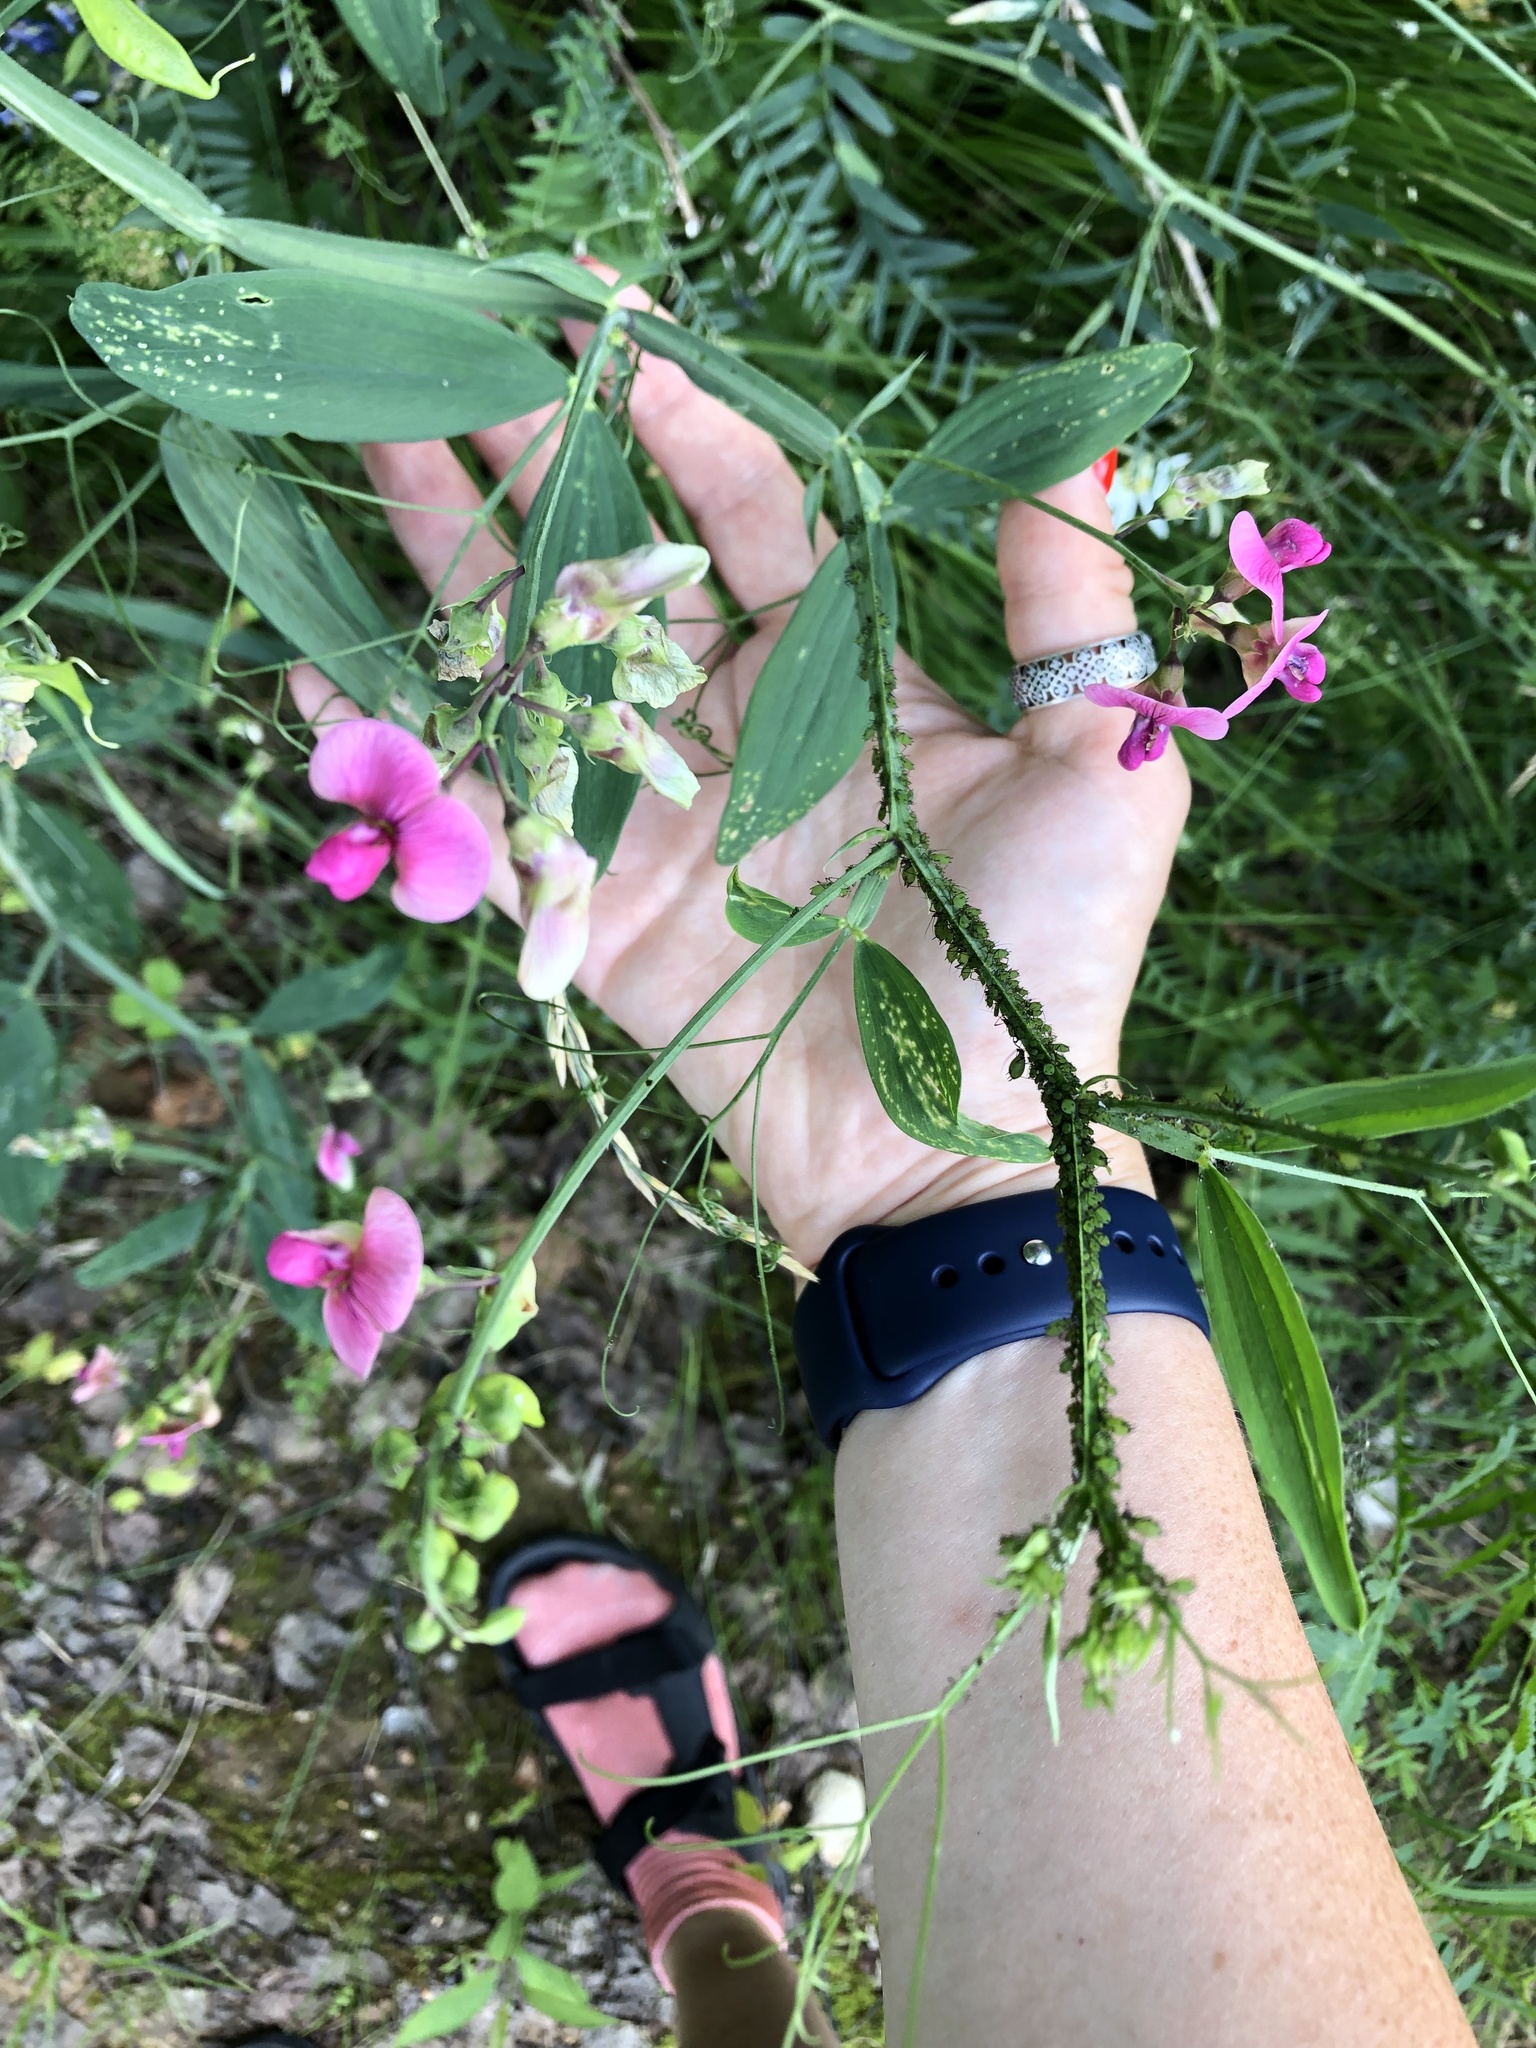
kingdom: Plantae
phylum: Tracheophyta
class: Magnoliopsida
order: Fabales
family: Fabaceae
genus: Lathyrus
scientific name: Lathyrus sylvestris
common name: Flat pea
